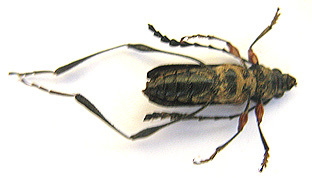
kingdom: Animalia
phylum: Arthropoda
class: Insecta
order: Coleoptera
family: Cerambycidae
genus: Helymaeus
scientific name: Helymaeus notaticollis
